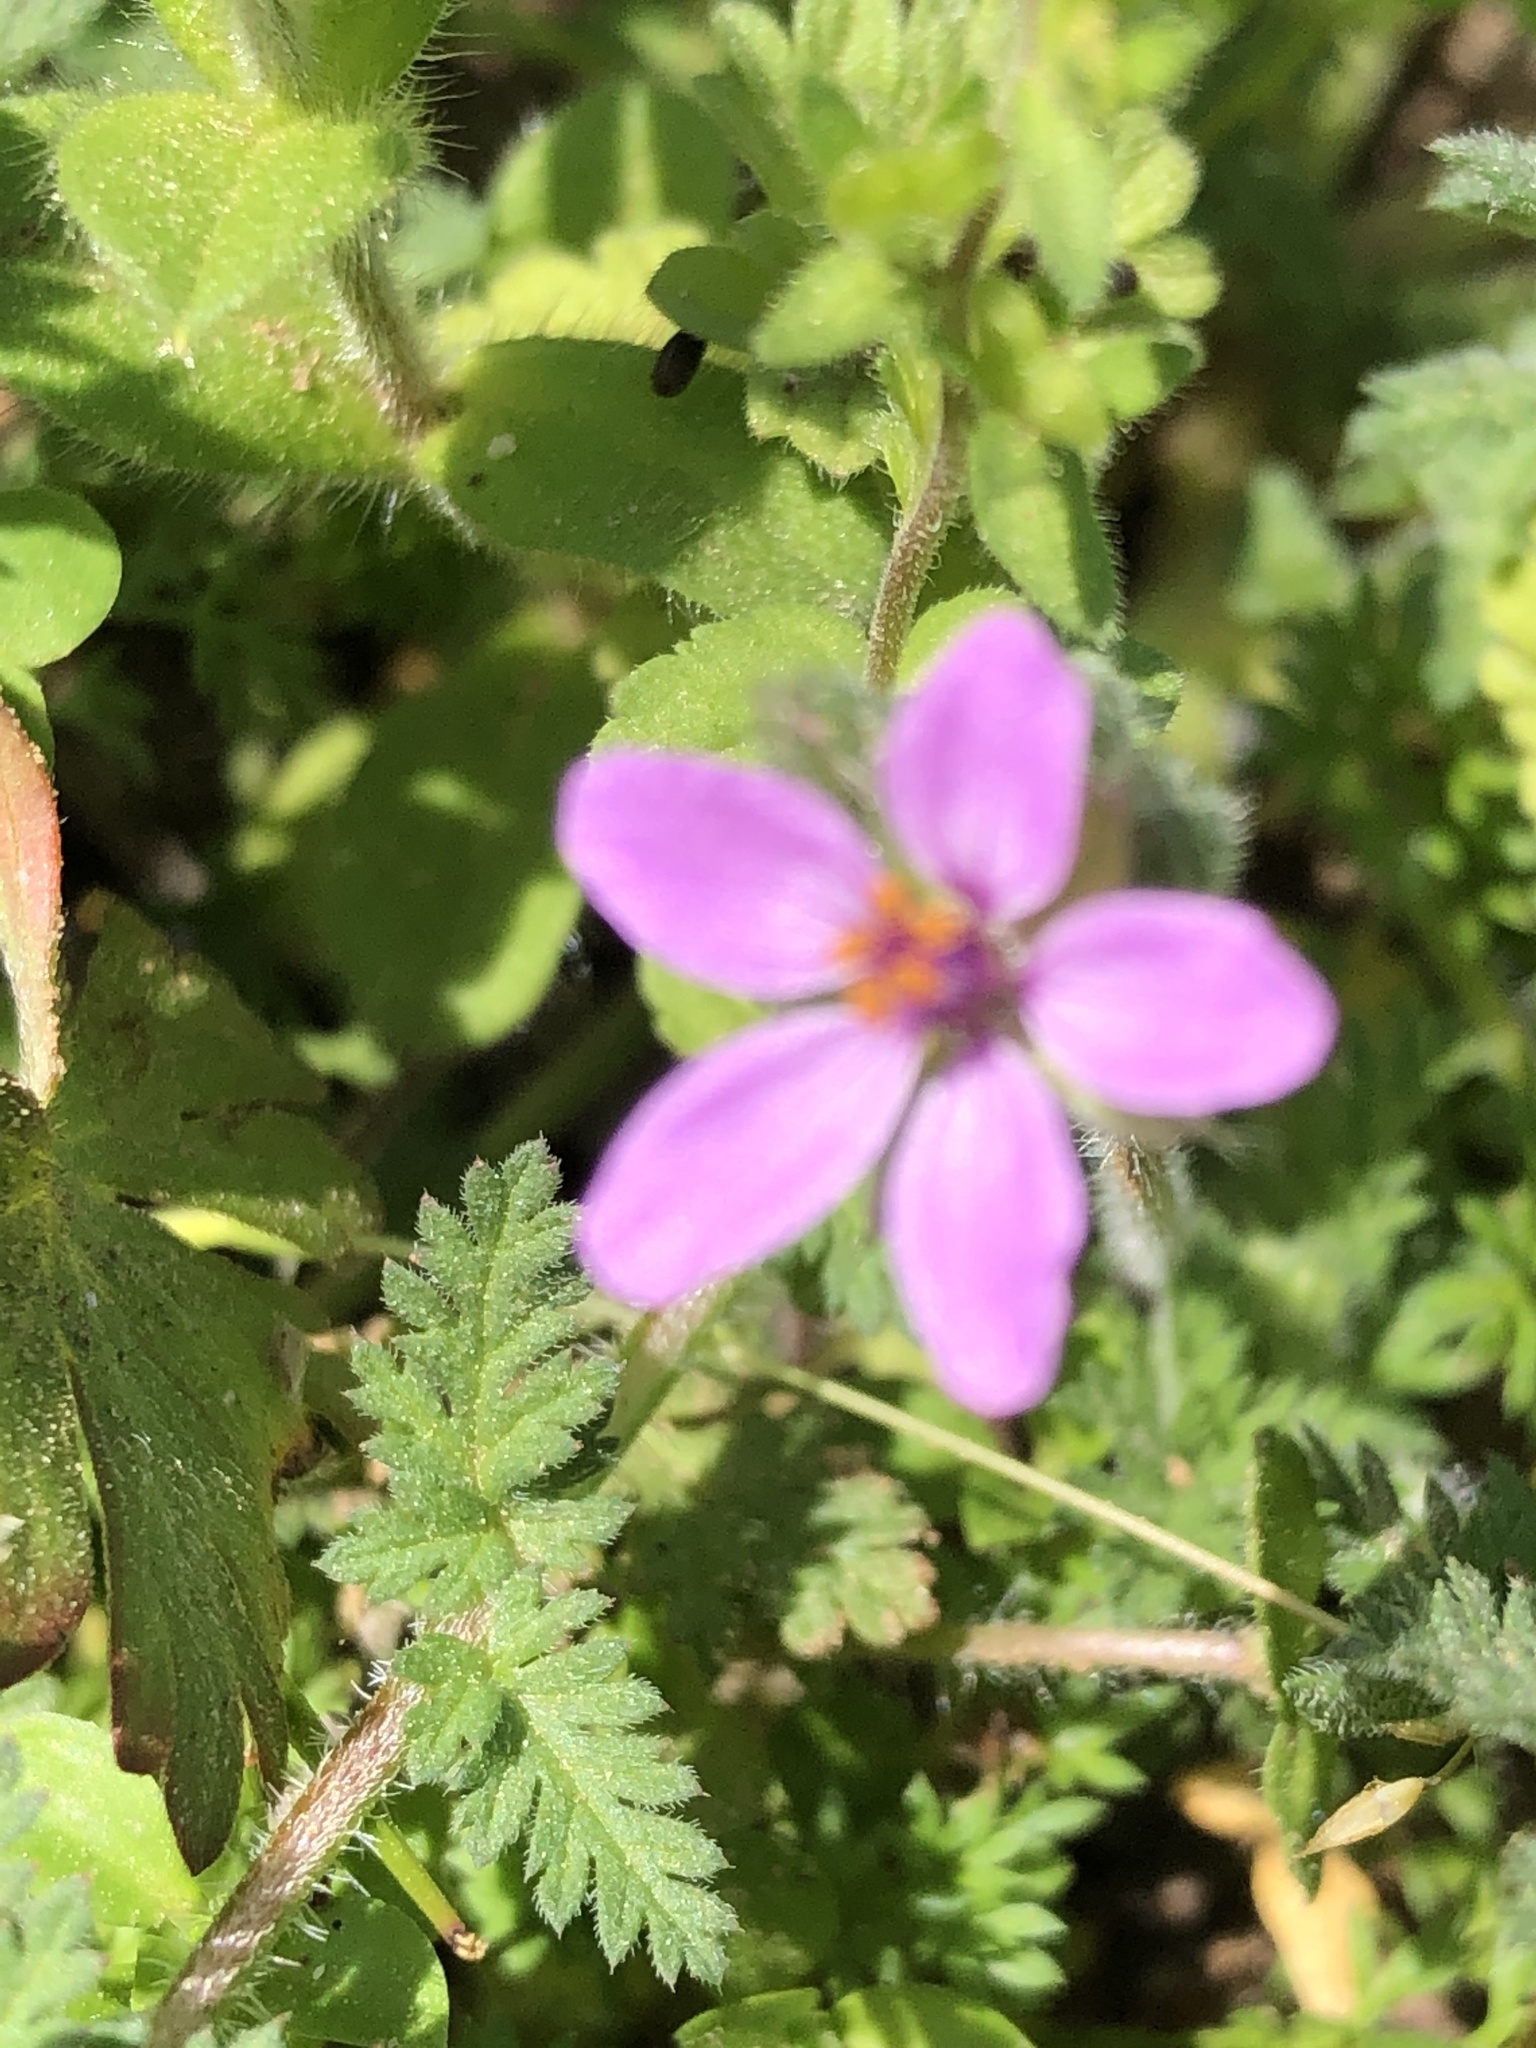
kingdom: Plantae
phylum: Tracheophyta
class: Magnoliopsida
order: Geraniales
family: Geraniaceae
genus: Erodium
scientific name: Erodium cicutarium
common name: Common stork's-bill
